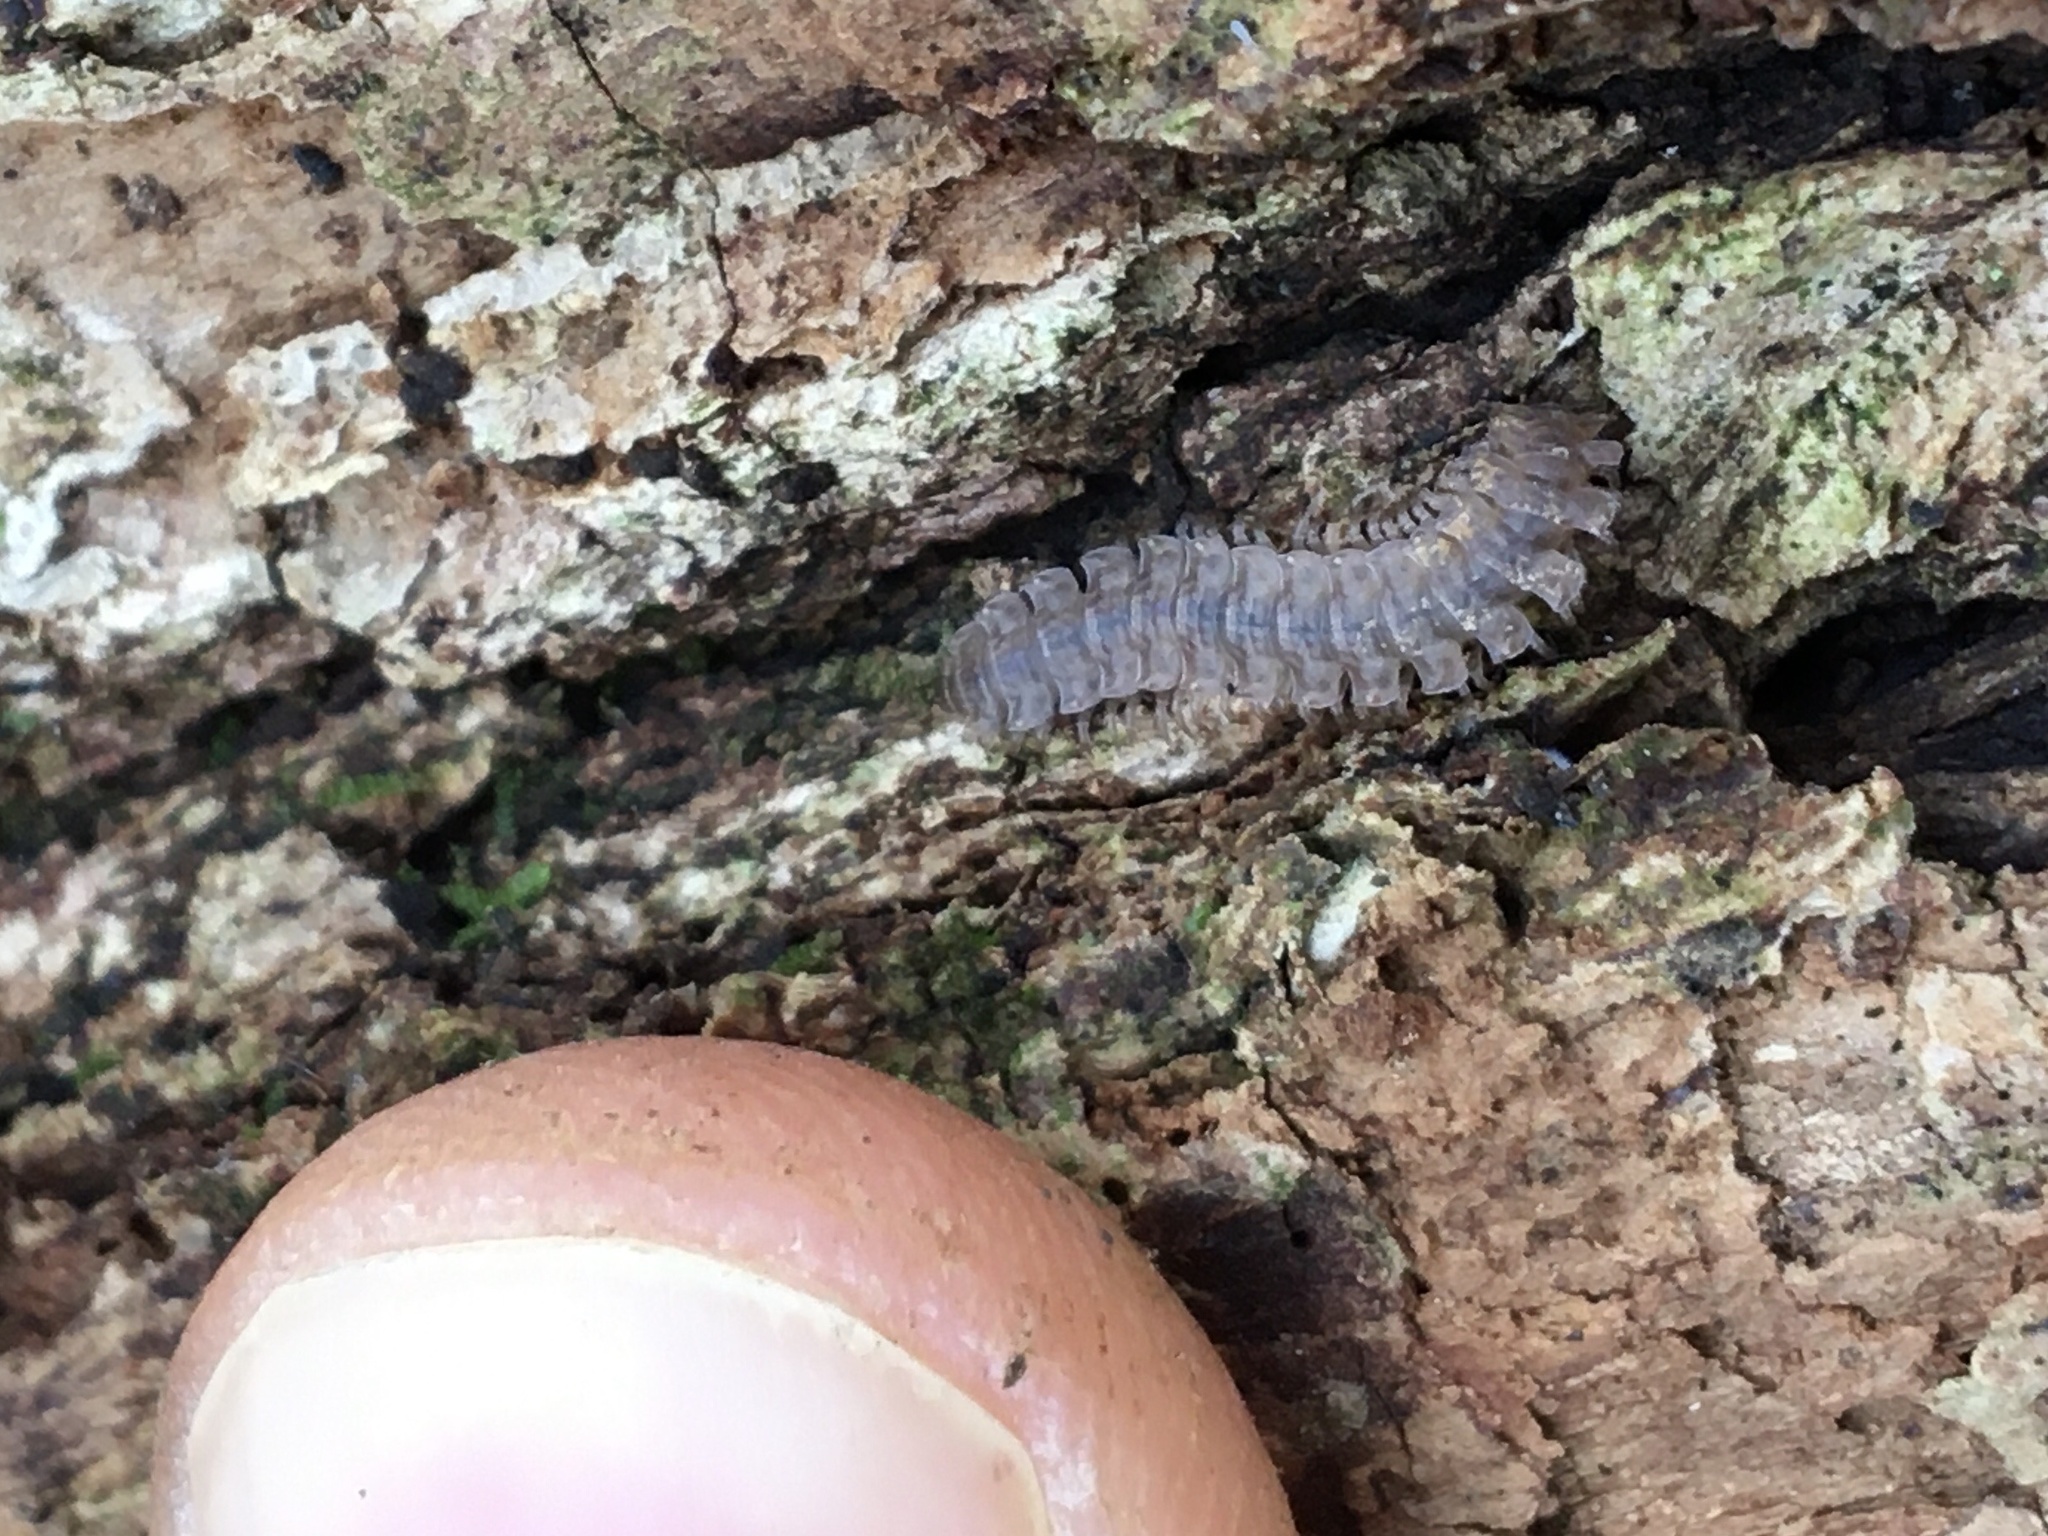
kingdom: Animalia
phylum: Arthropoda
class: Diplopoda
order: Polydesmida
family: Polydesmidae
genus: Polydesmus
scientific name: Polydesmus angustus
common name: Flat millipede
